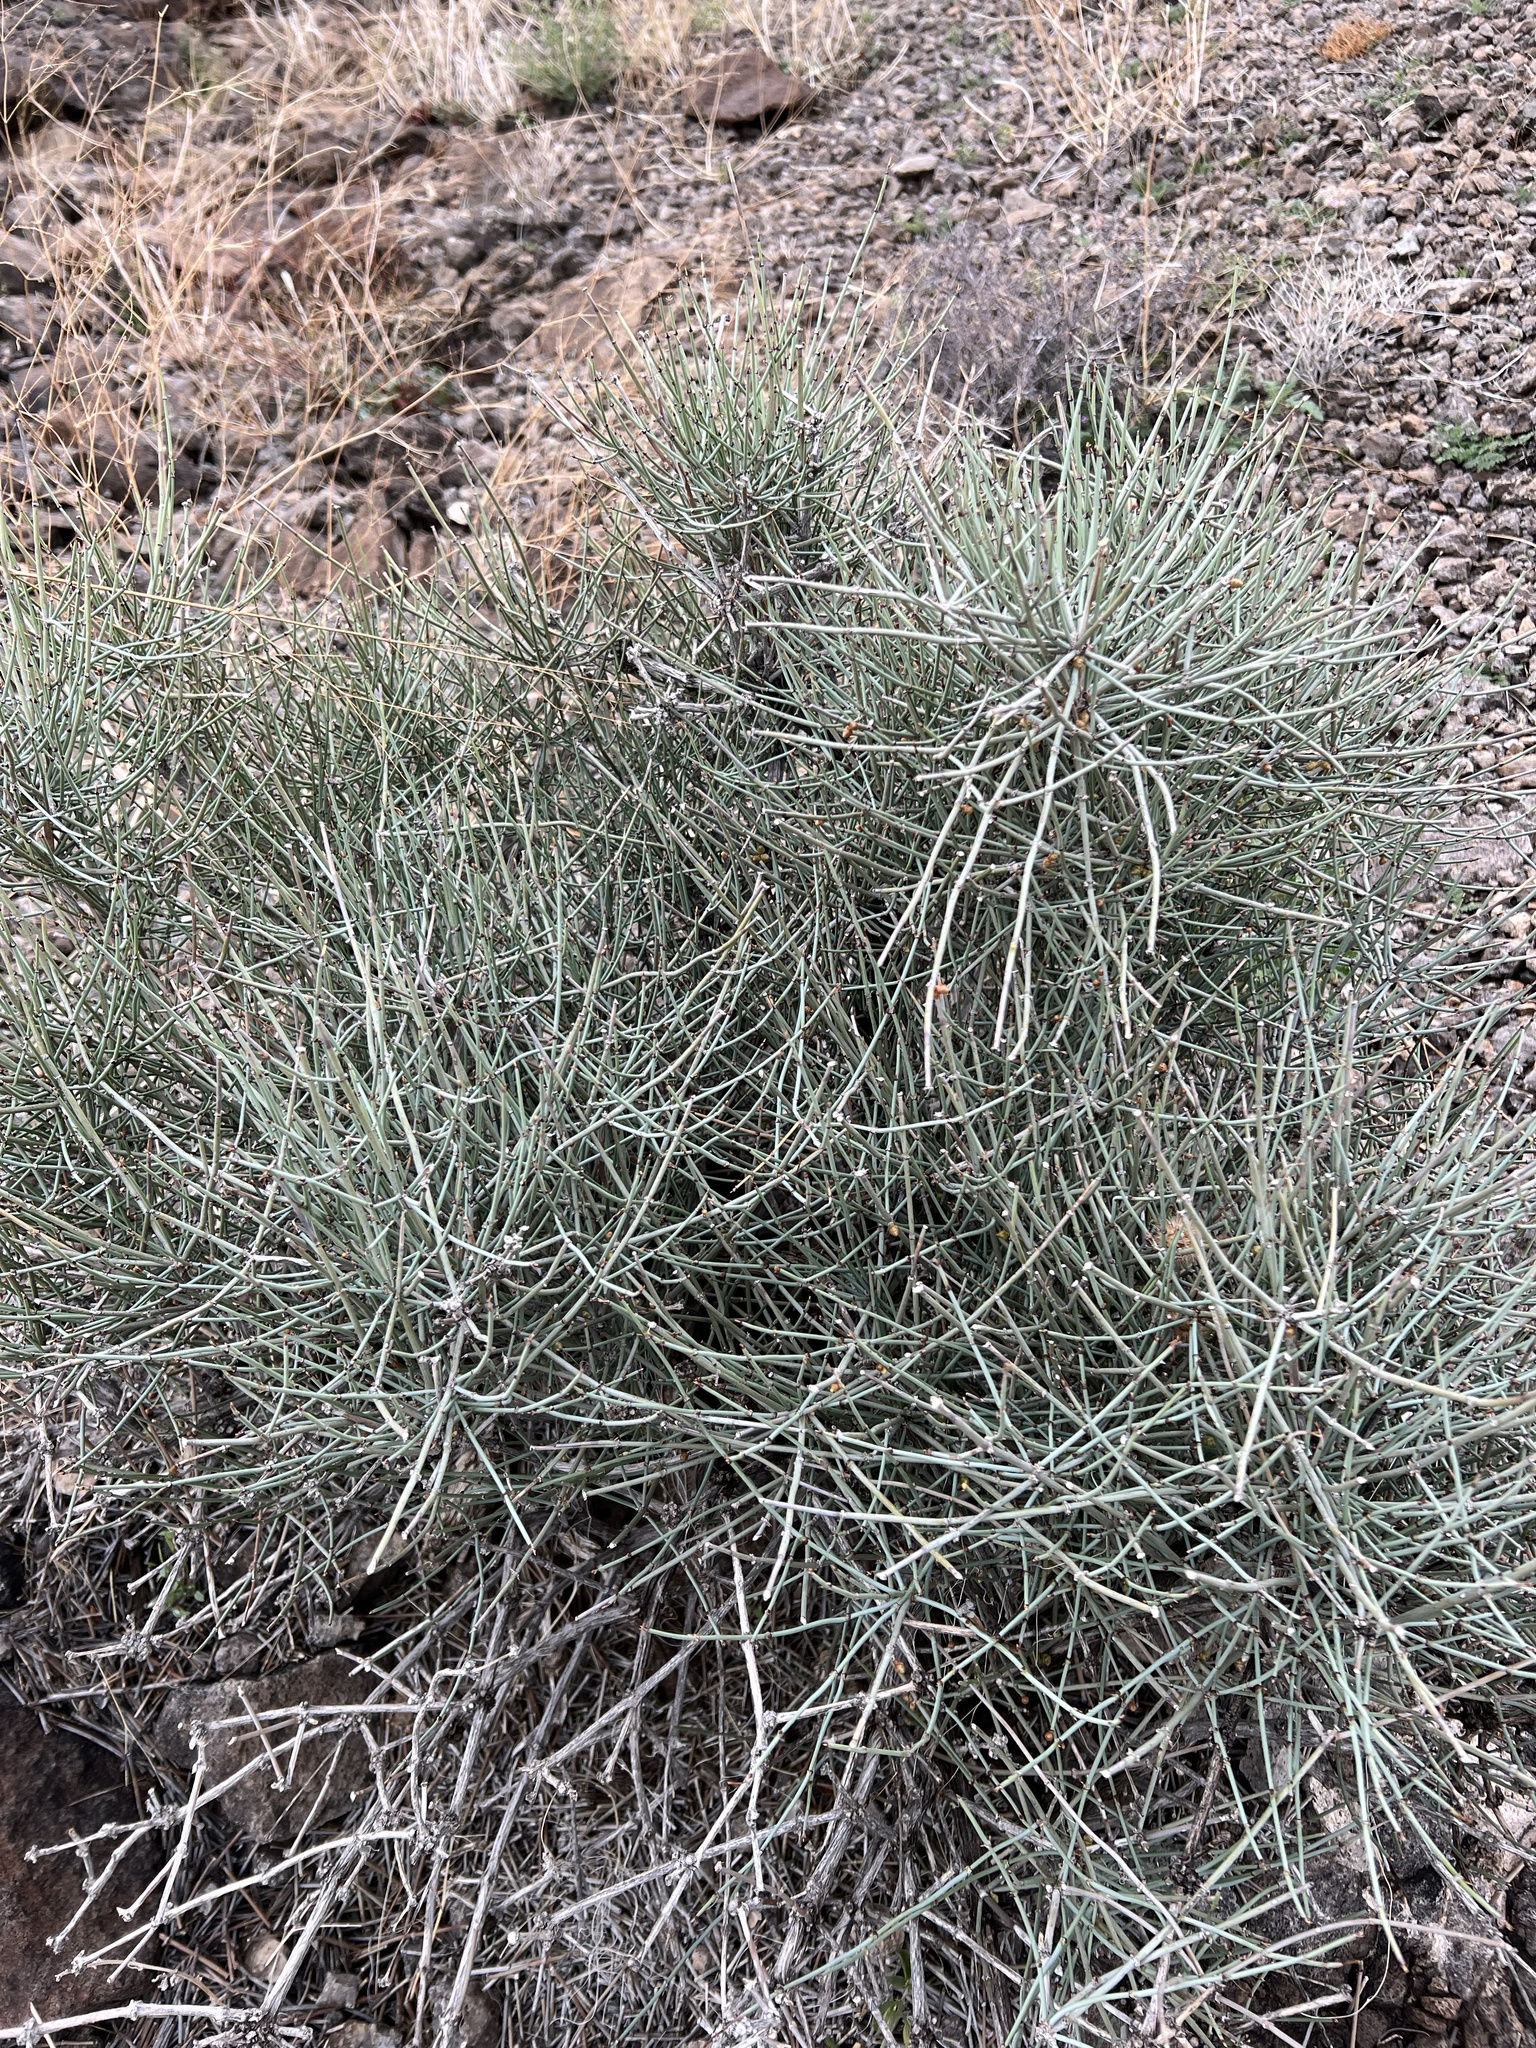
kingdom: Plantae
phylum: Tracheophyta
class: Gnetopsida
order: Ephedrales
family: Ephedraceae
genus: Ephedra
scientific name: Ephedra nevadensis
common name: Gray ephedra
